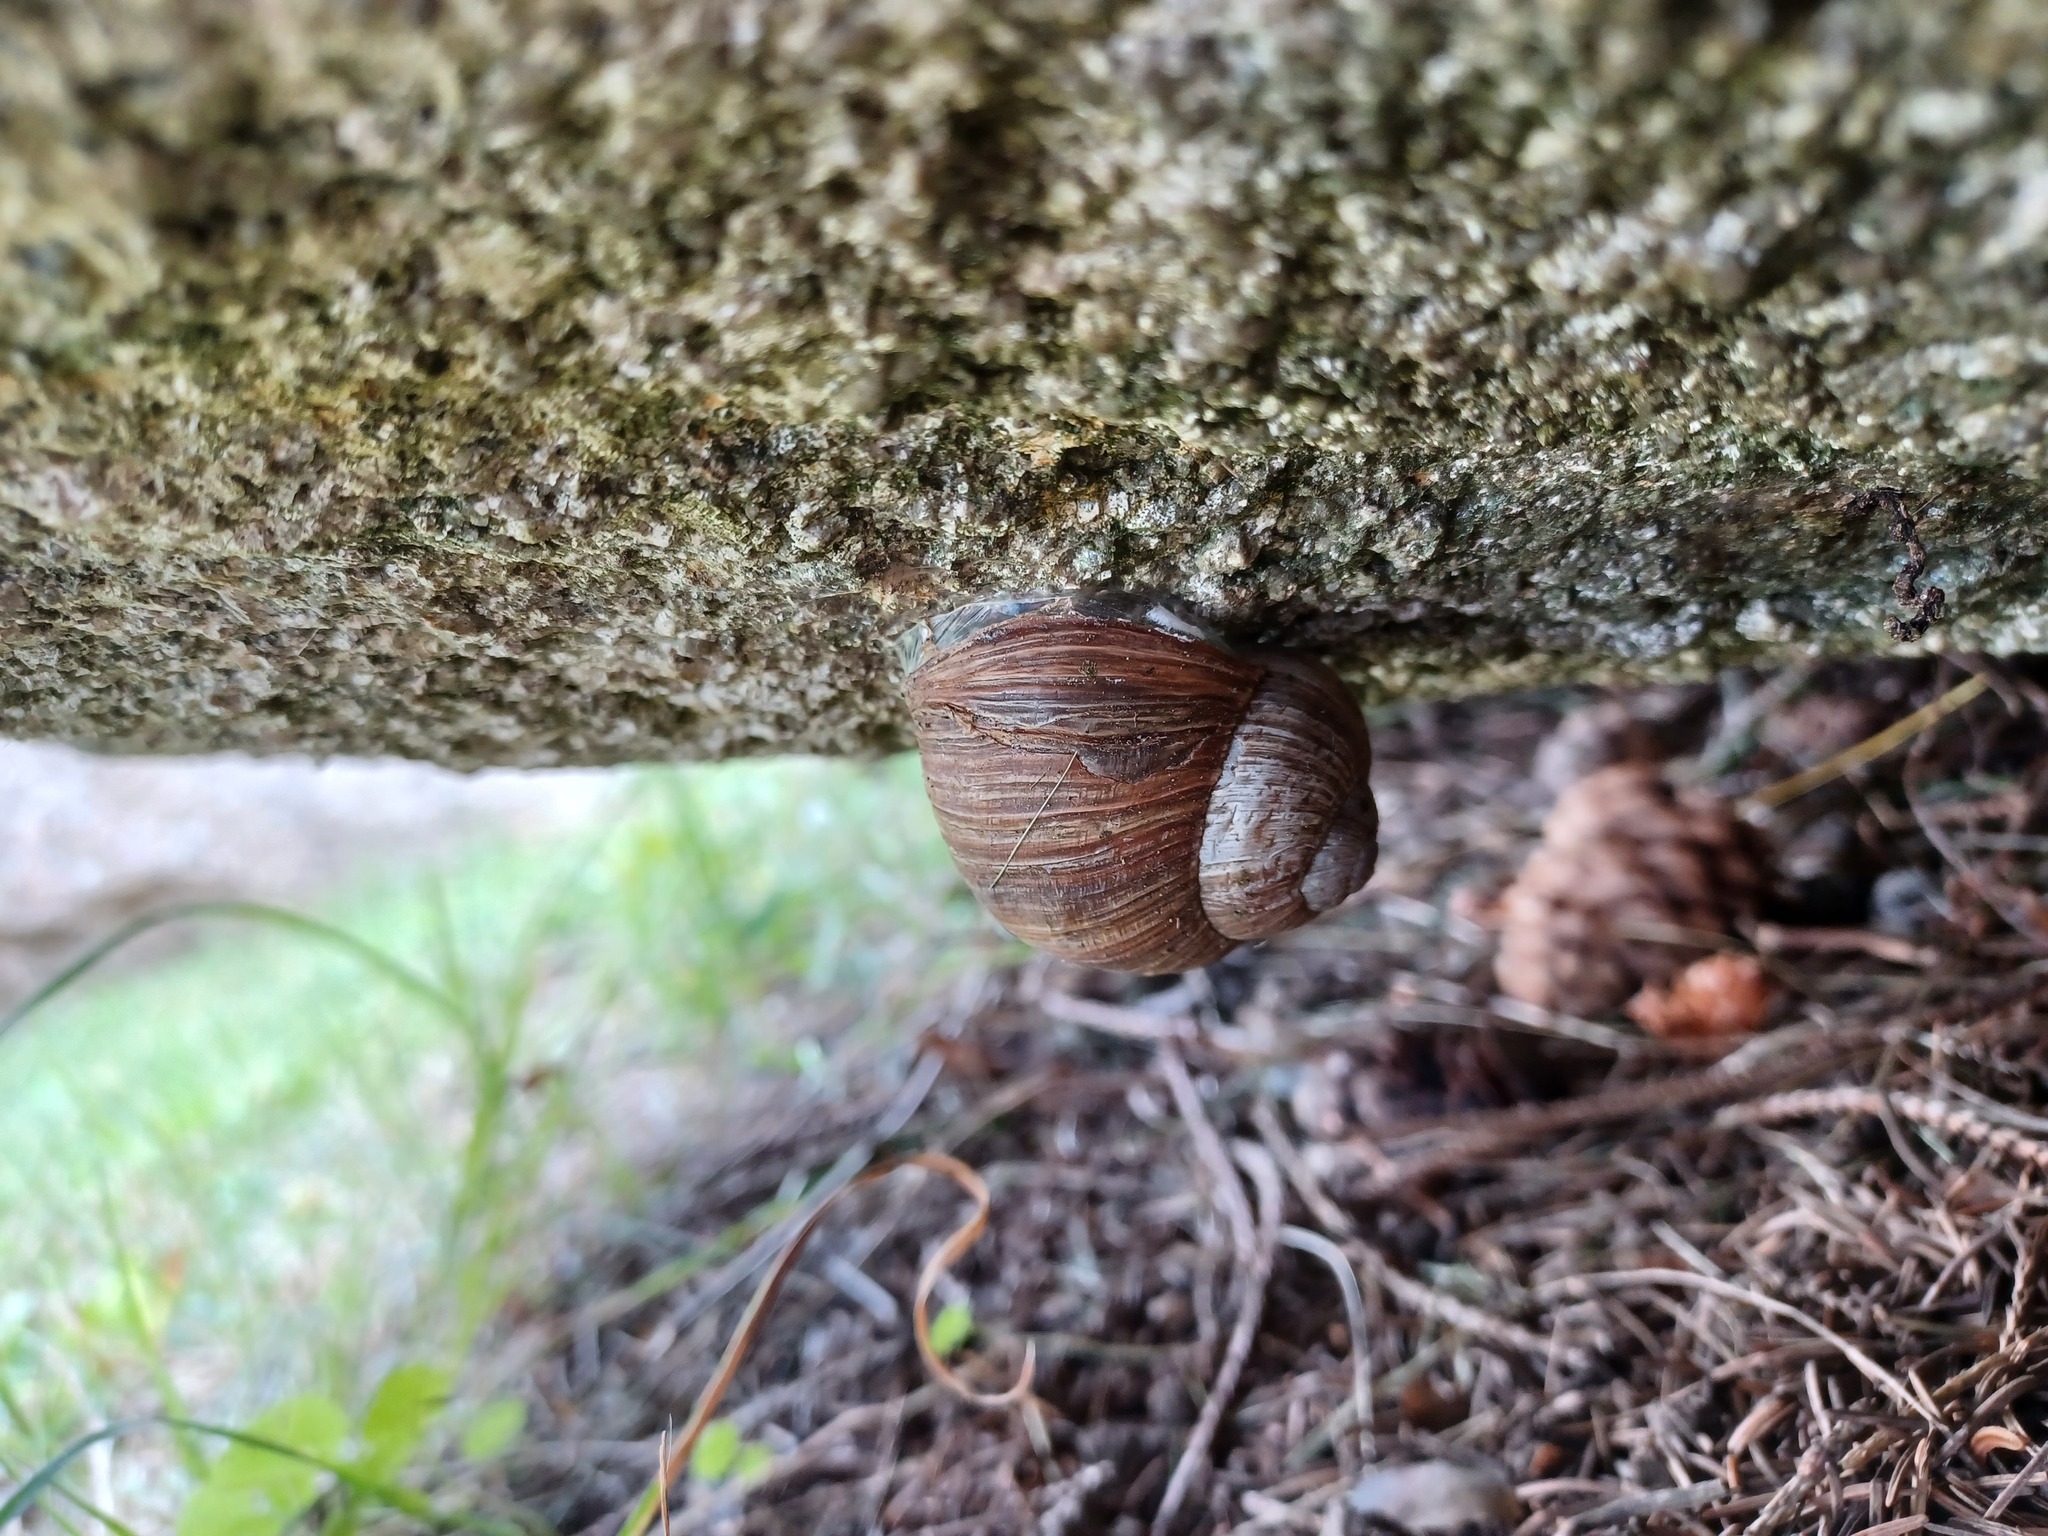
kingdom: Animalia
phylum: Mollusca
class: Gastropoda
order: Stylommatophora
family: Helicidae
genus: Helix
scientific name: Helix pomatia
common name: Roman snail
